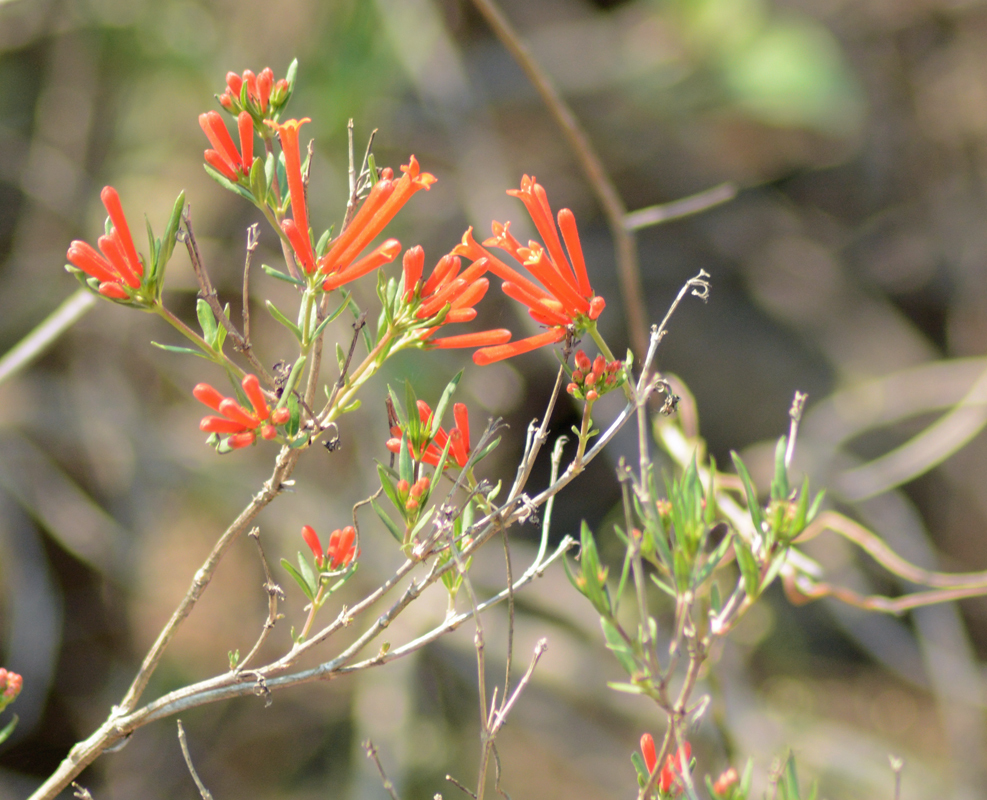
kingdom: Plantae
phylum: Tracheophyta
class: Magnoliopsida
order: Gentianales
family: Rubiaceae
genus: Bouvardia
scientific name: Bouvardia ternifolia
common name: Scarlet bouvardia
